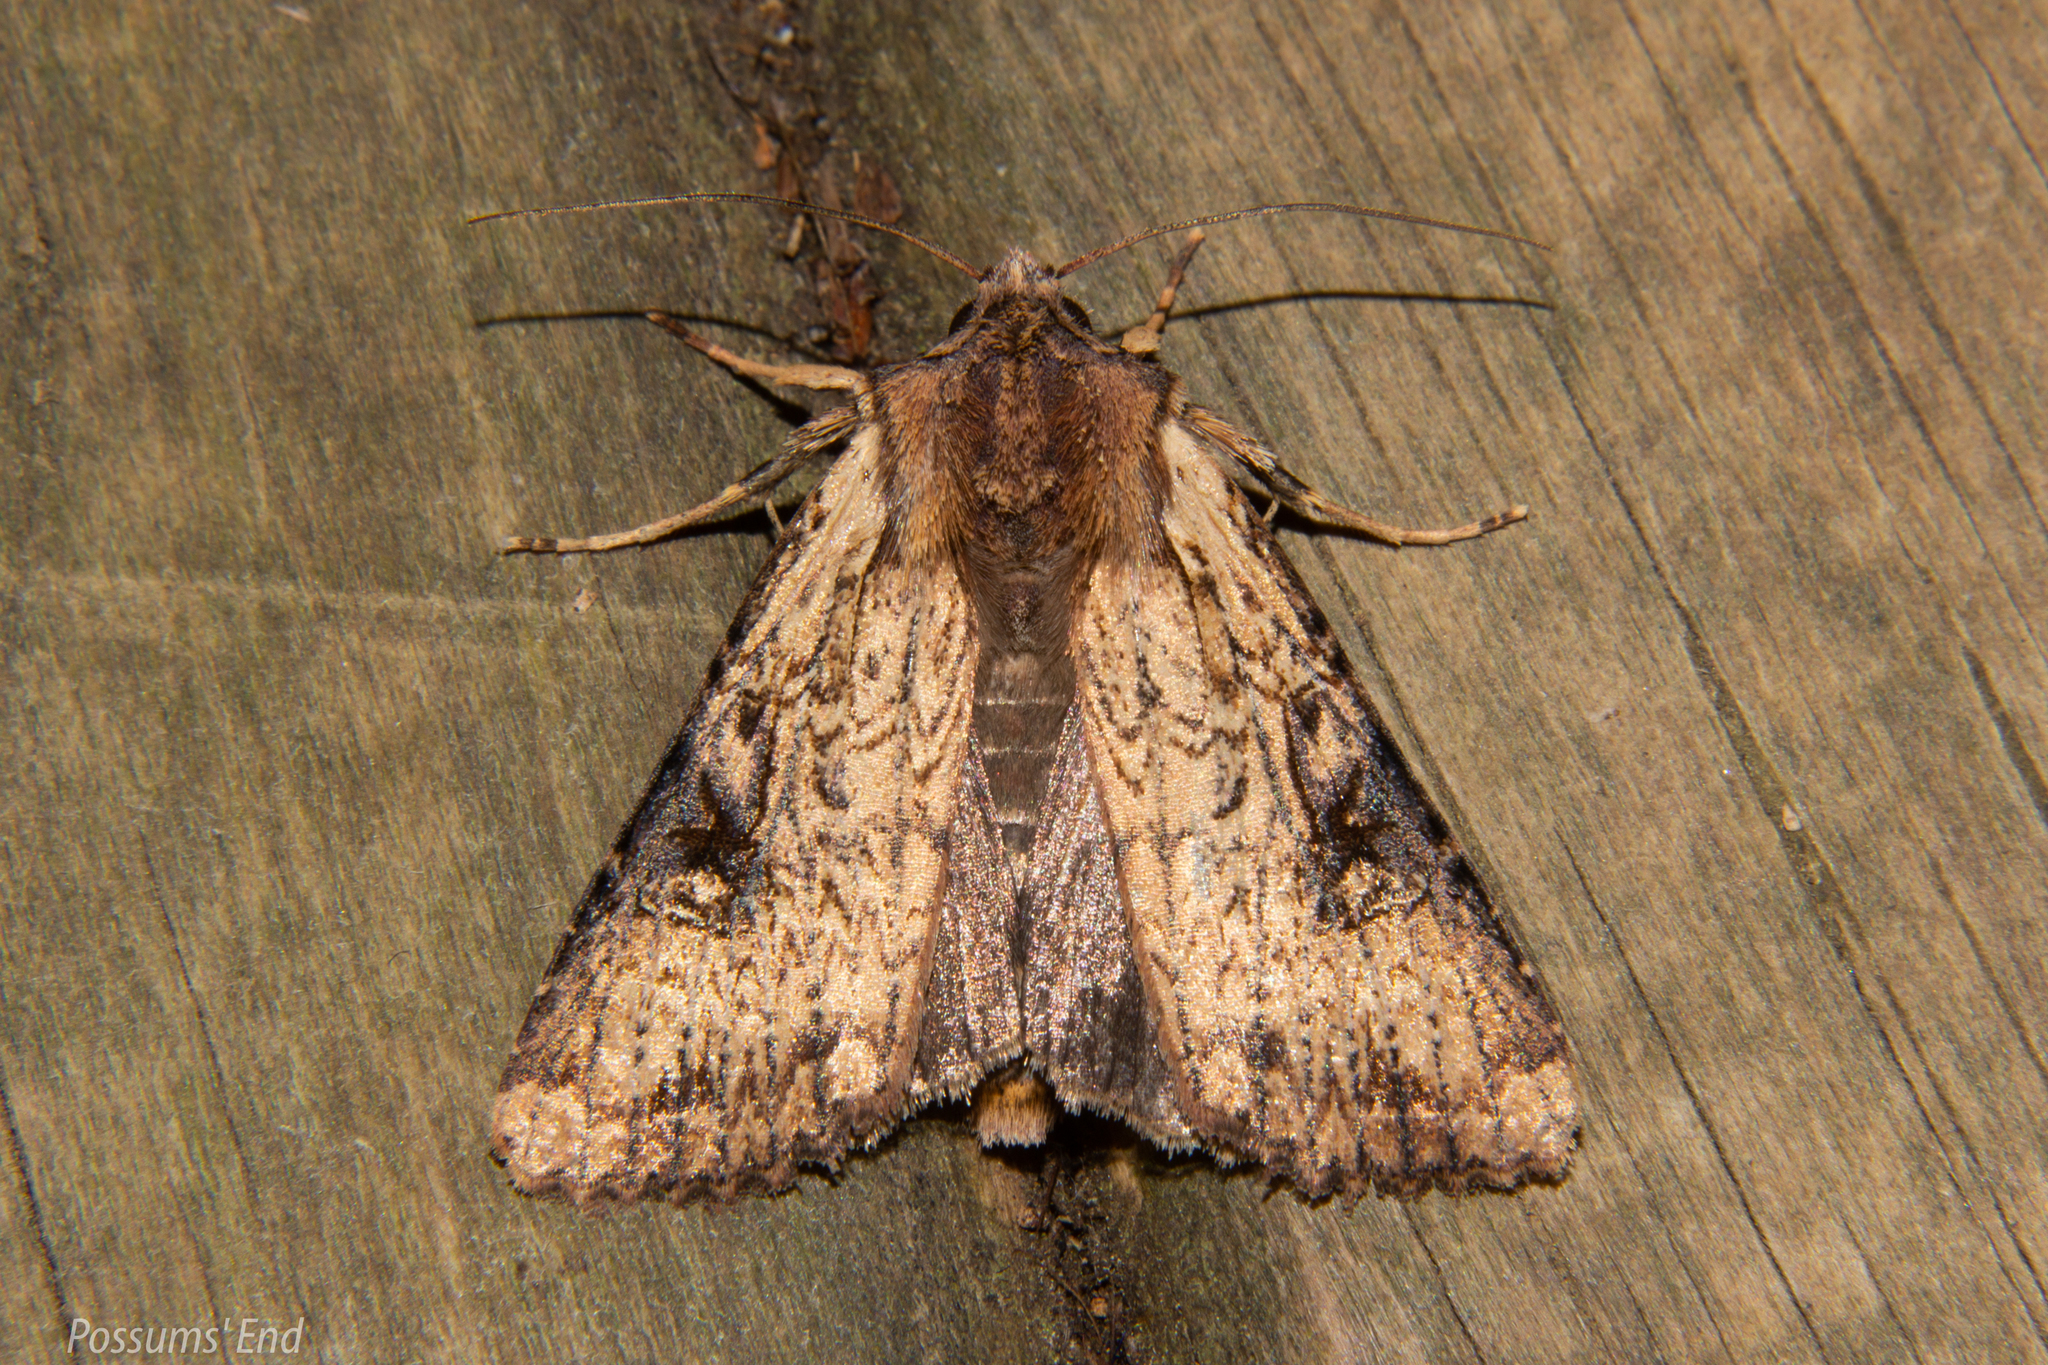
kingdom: Animalia
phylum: Arthropoda
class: Insecta
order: Lepidoptera
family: Noctuidae
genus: Ichneutica
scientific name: Ichneutica omoplaca
